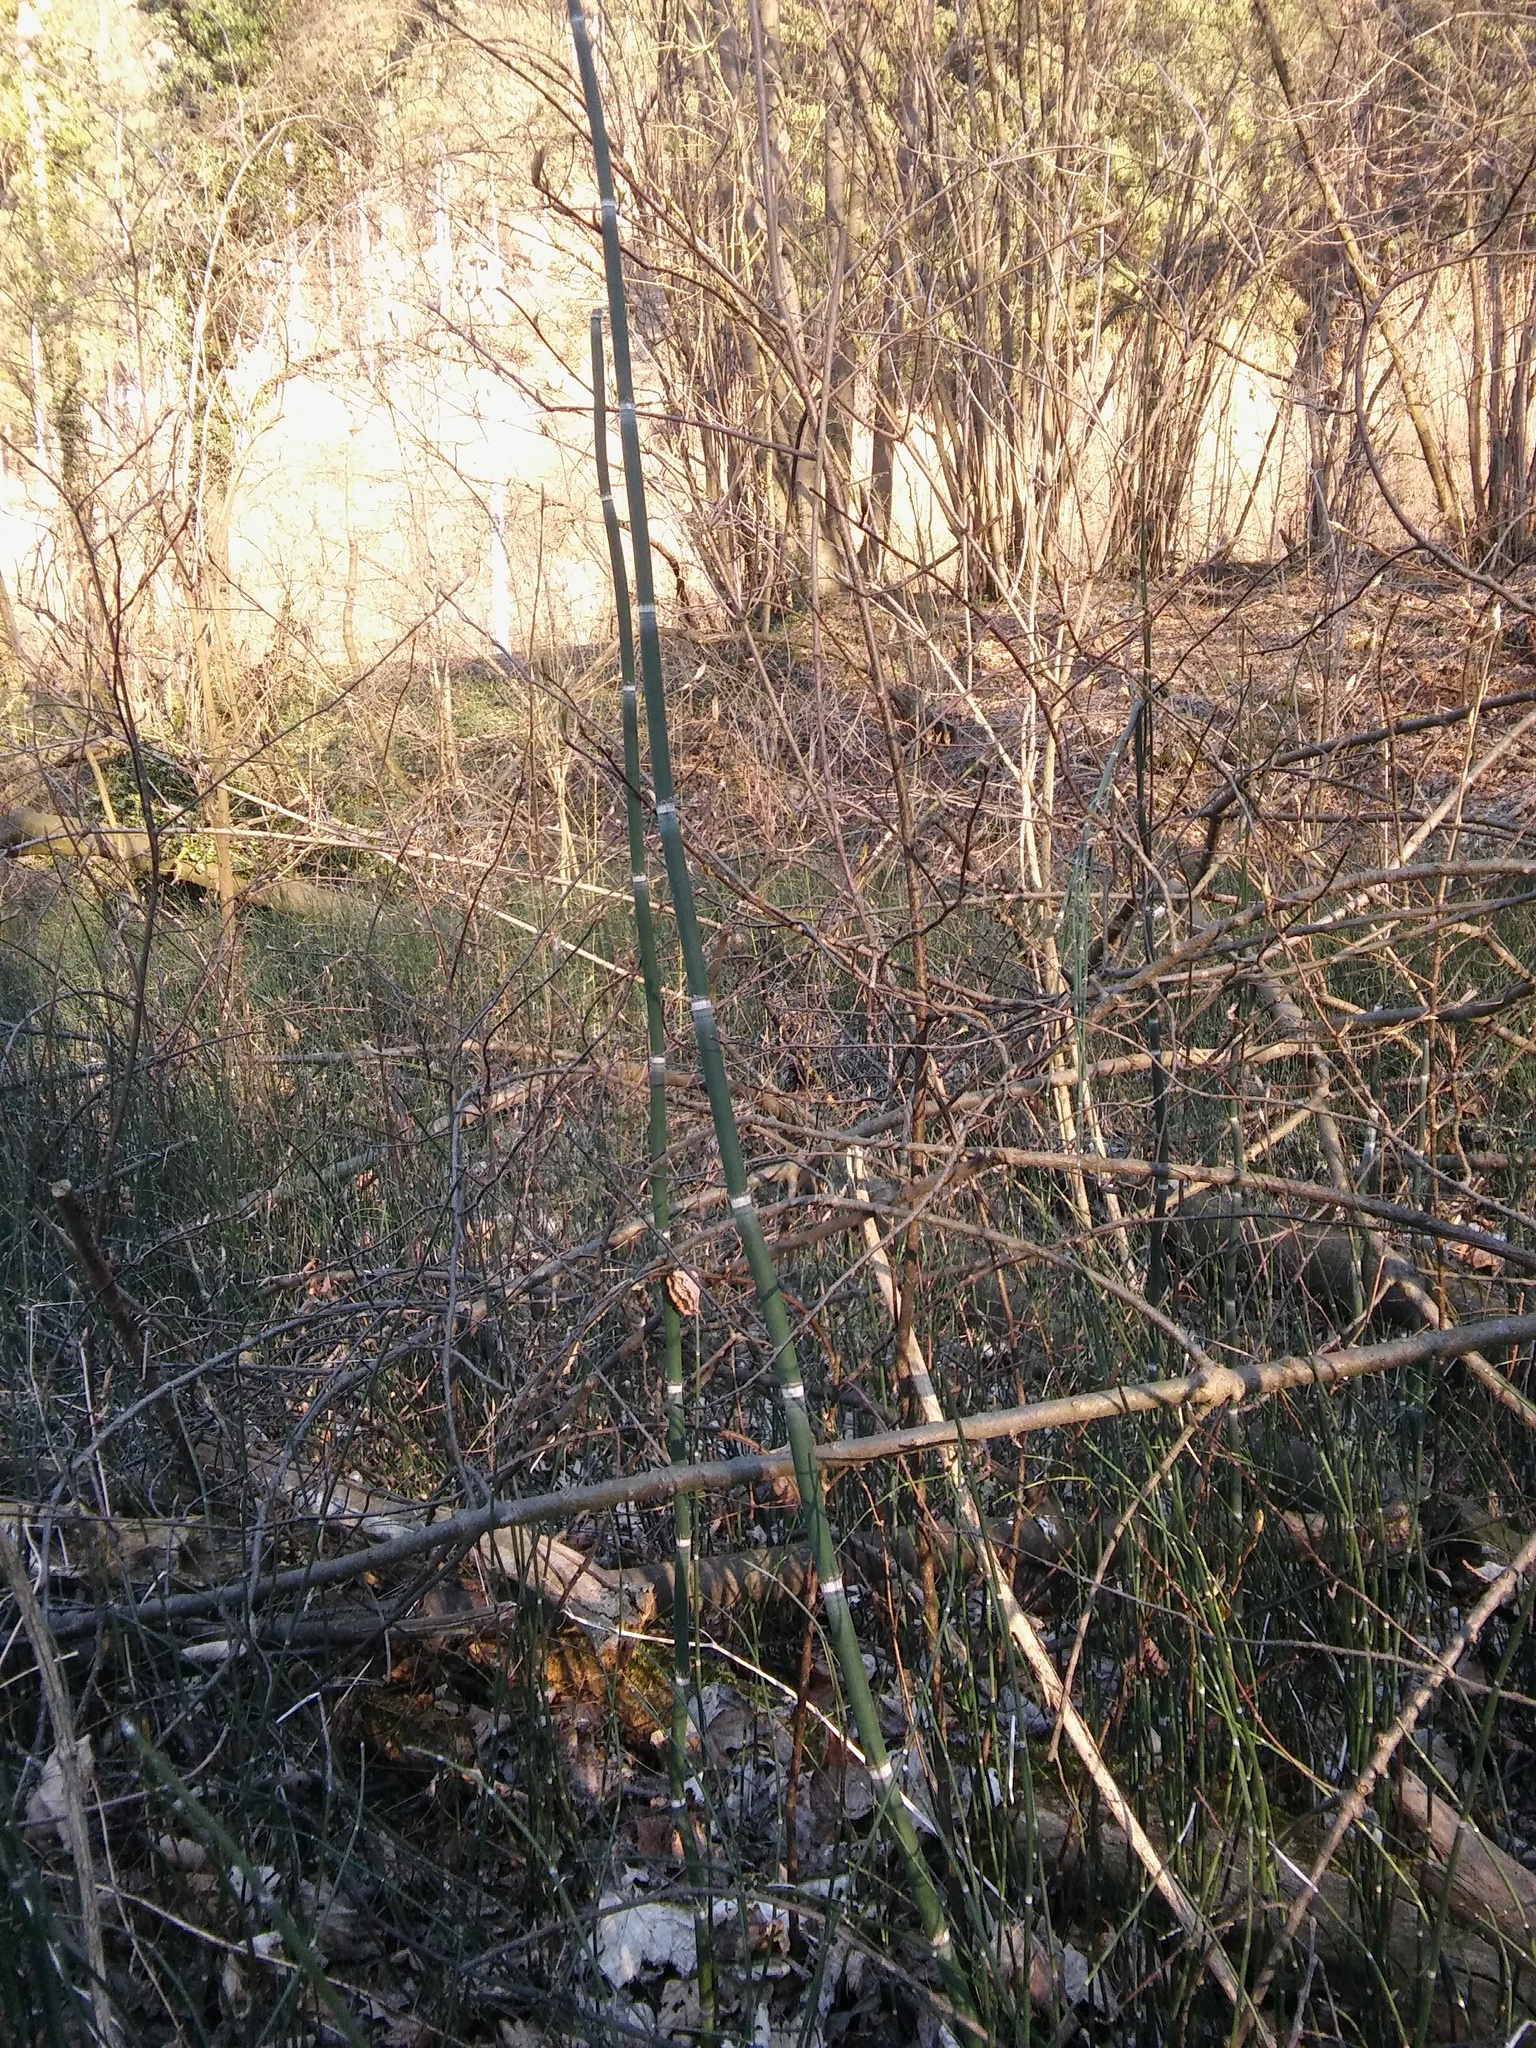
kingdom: Plantae
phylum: Tracheophyta
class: Polypodiopsida
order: Equisetales
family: Equisetaceae
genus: Equisetum
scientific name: Equisetum hyemale
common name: Rough horsetail
